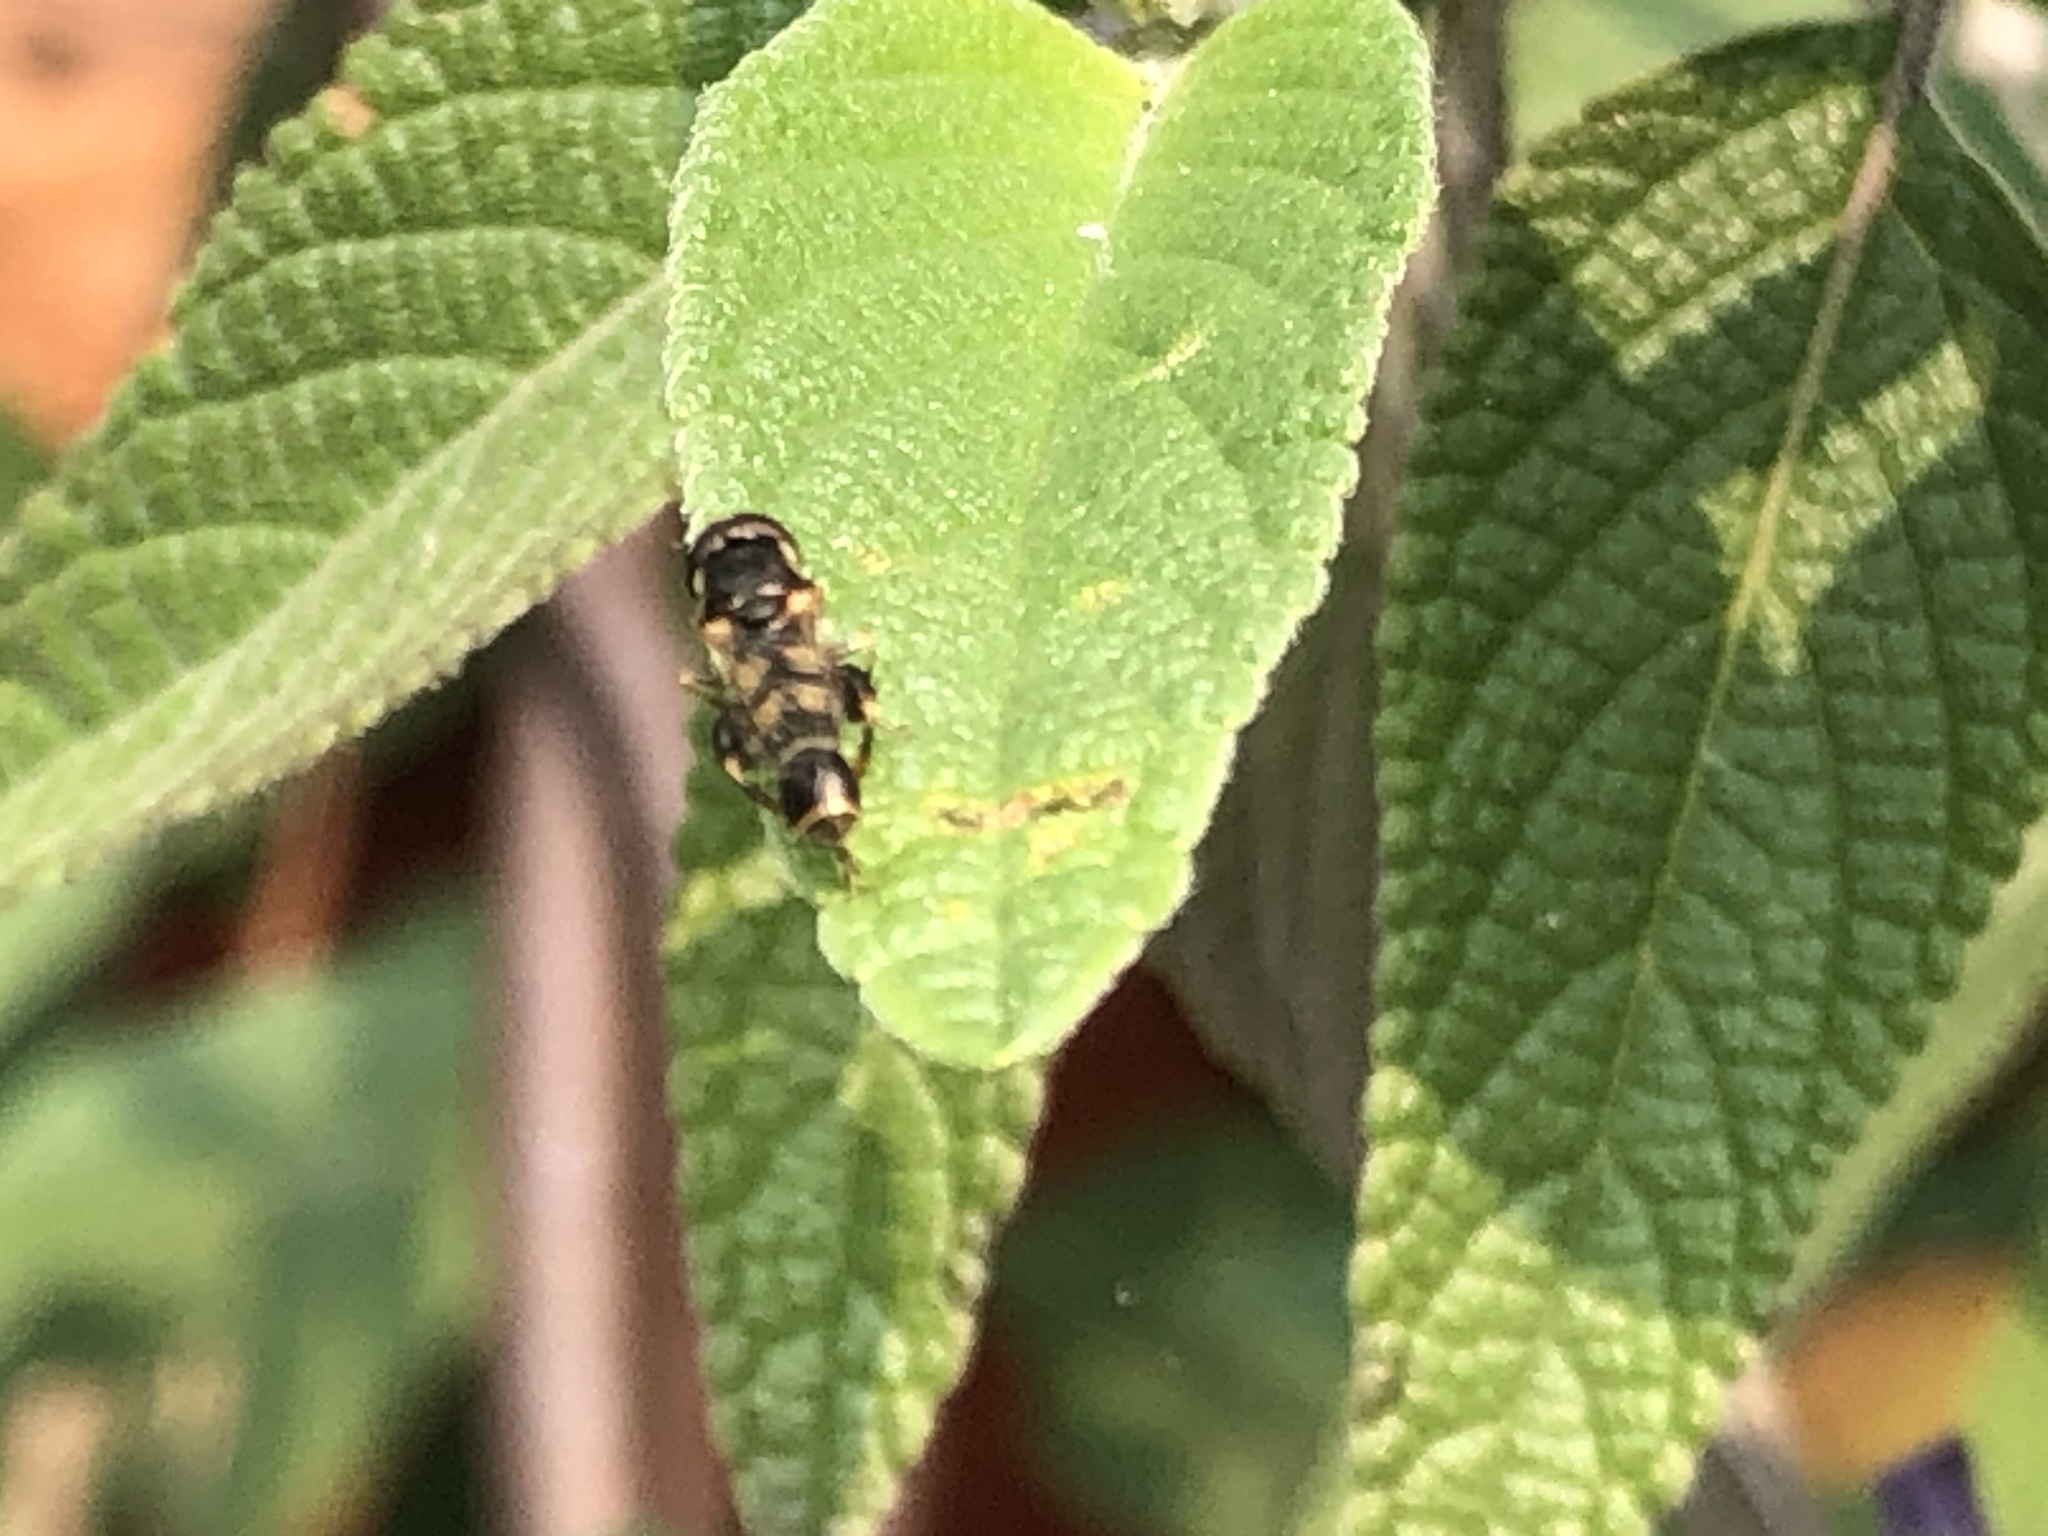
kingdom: Animalia
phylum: Arthropoda
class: Insecta
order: Diptera
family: Syrphidae
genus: Syritta
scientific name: Syritta pipiens
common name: Hover fly
